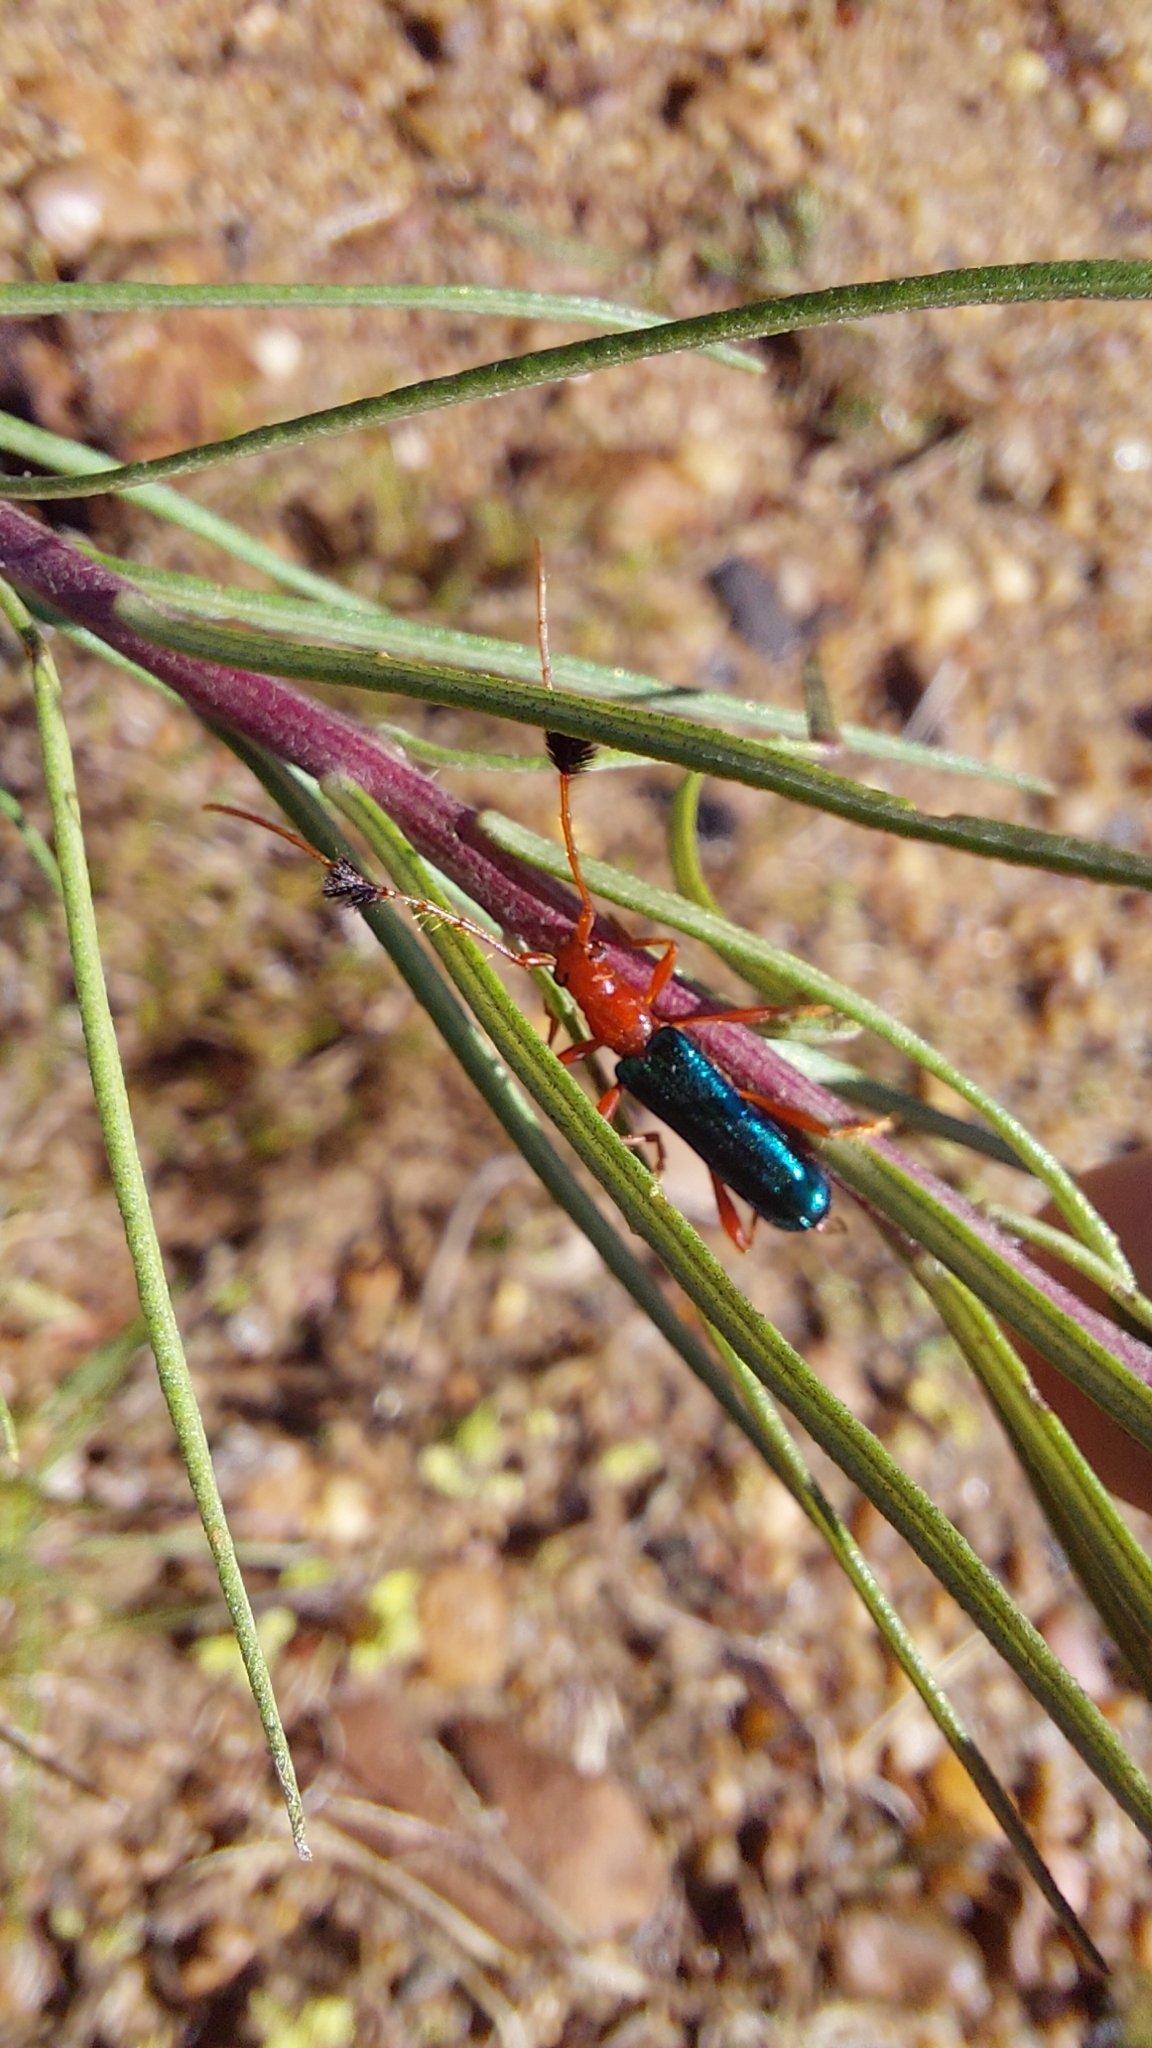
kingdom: Animalia
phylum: Arthropoda
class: Insecta
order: Coleoptera
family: Cerambycidae
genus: Paromoeocerus
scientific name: Paromoeocerus barbicornis
